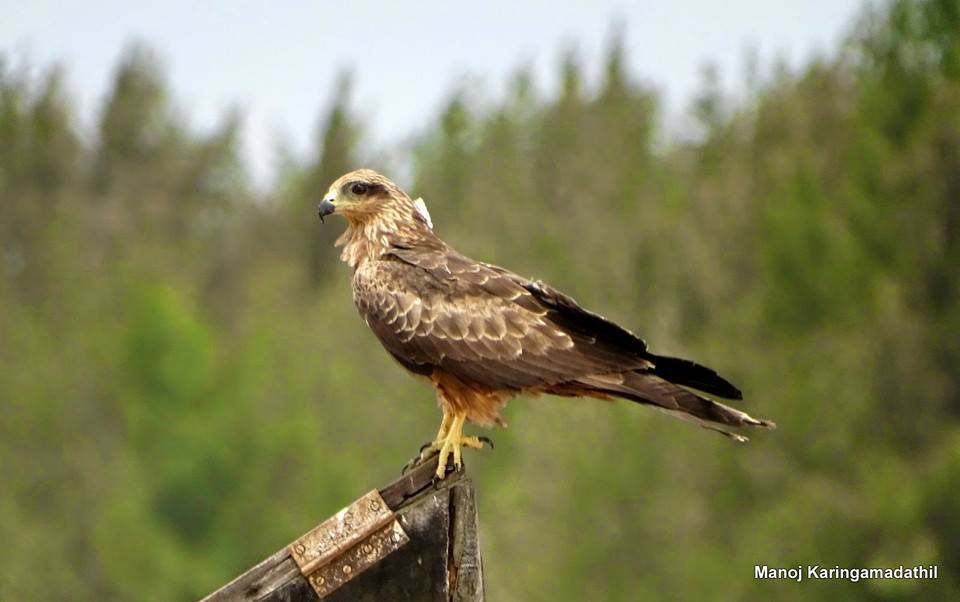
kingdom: Animalia
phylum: Chordata
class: Aves
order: Accipitriformes
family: Accipitridae
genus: Milvus
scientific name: Milvus migrans
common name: Black kite
